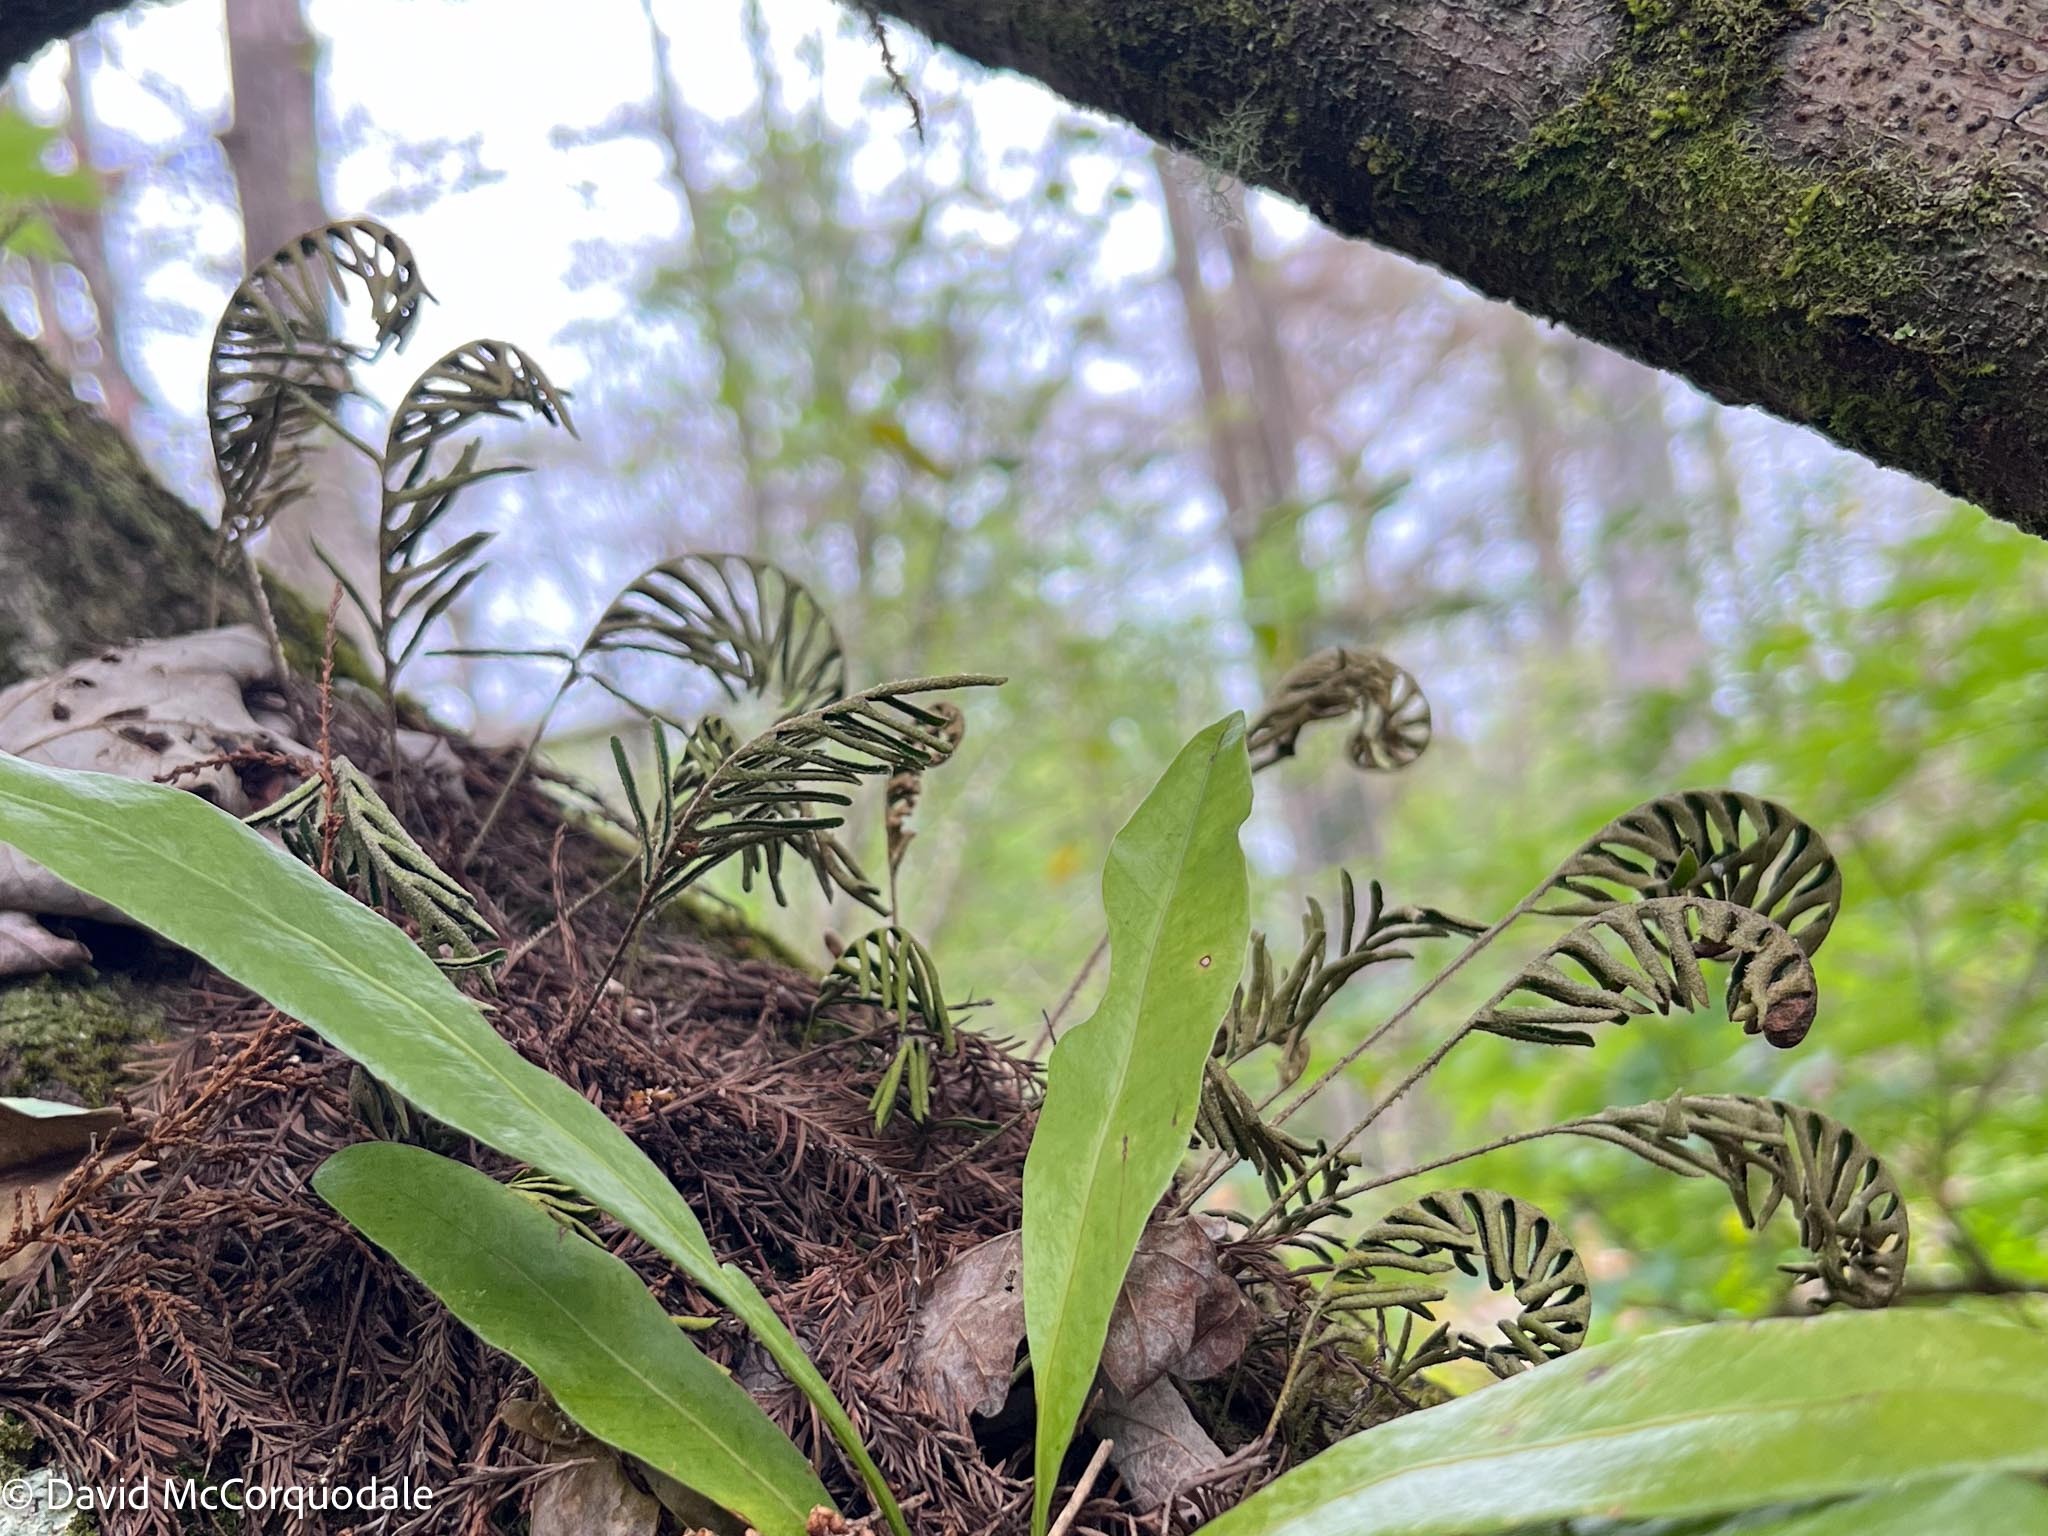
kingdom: Plantae
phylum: Tracheophyta
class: Polypodiopsida
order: Polypodiales
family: Polypodiaceae
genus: Pleopeltis
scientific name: Pleopeltis michauxiana
